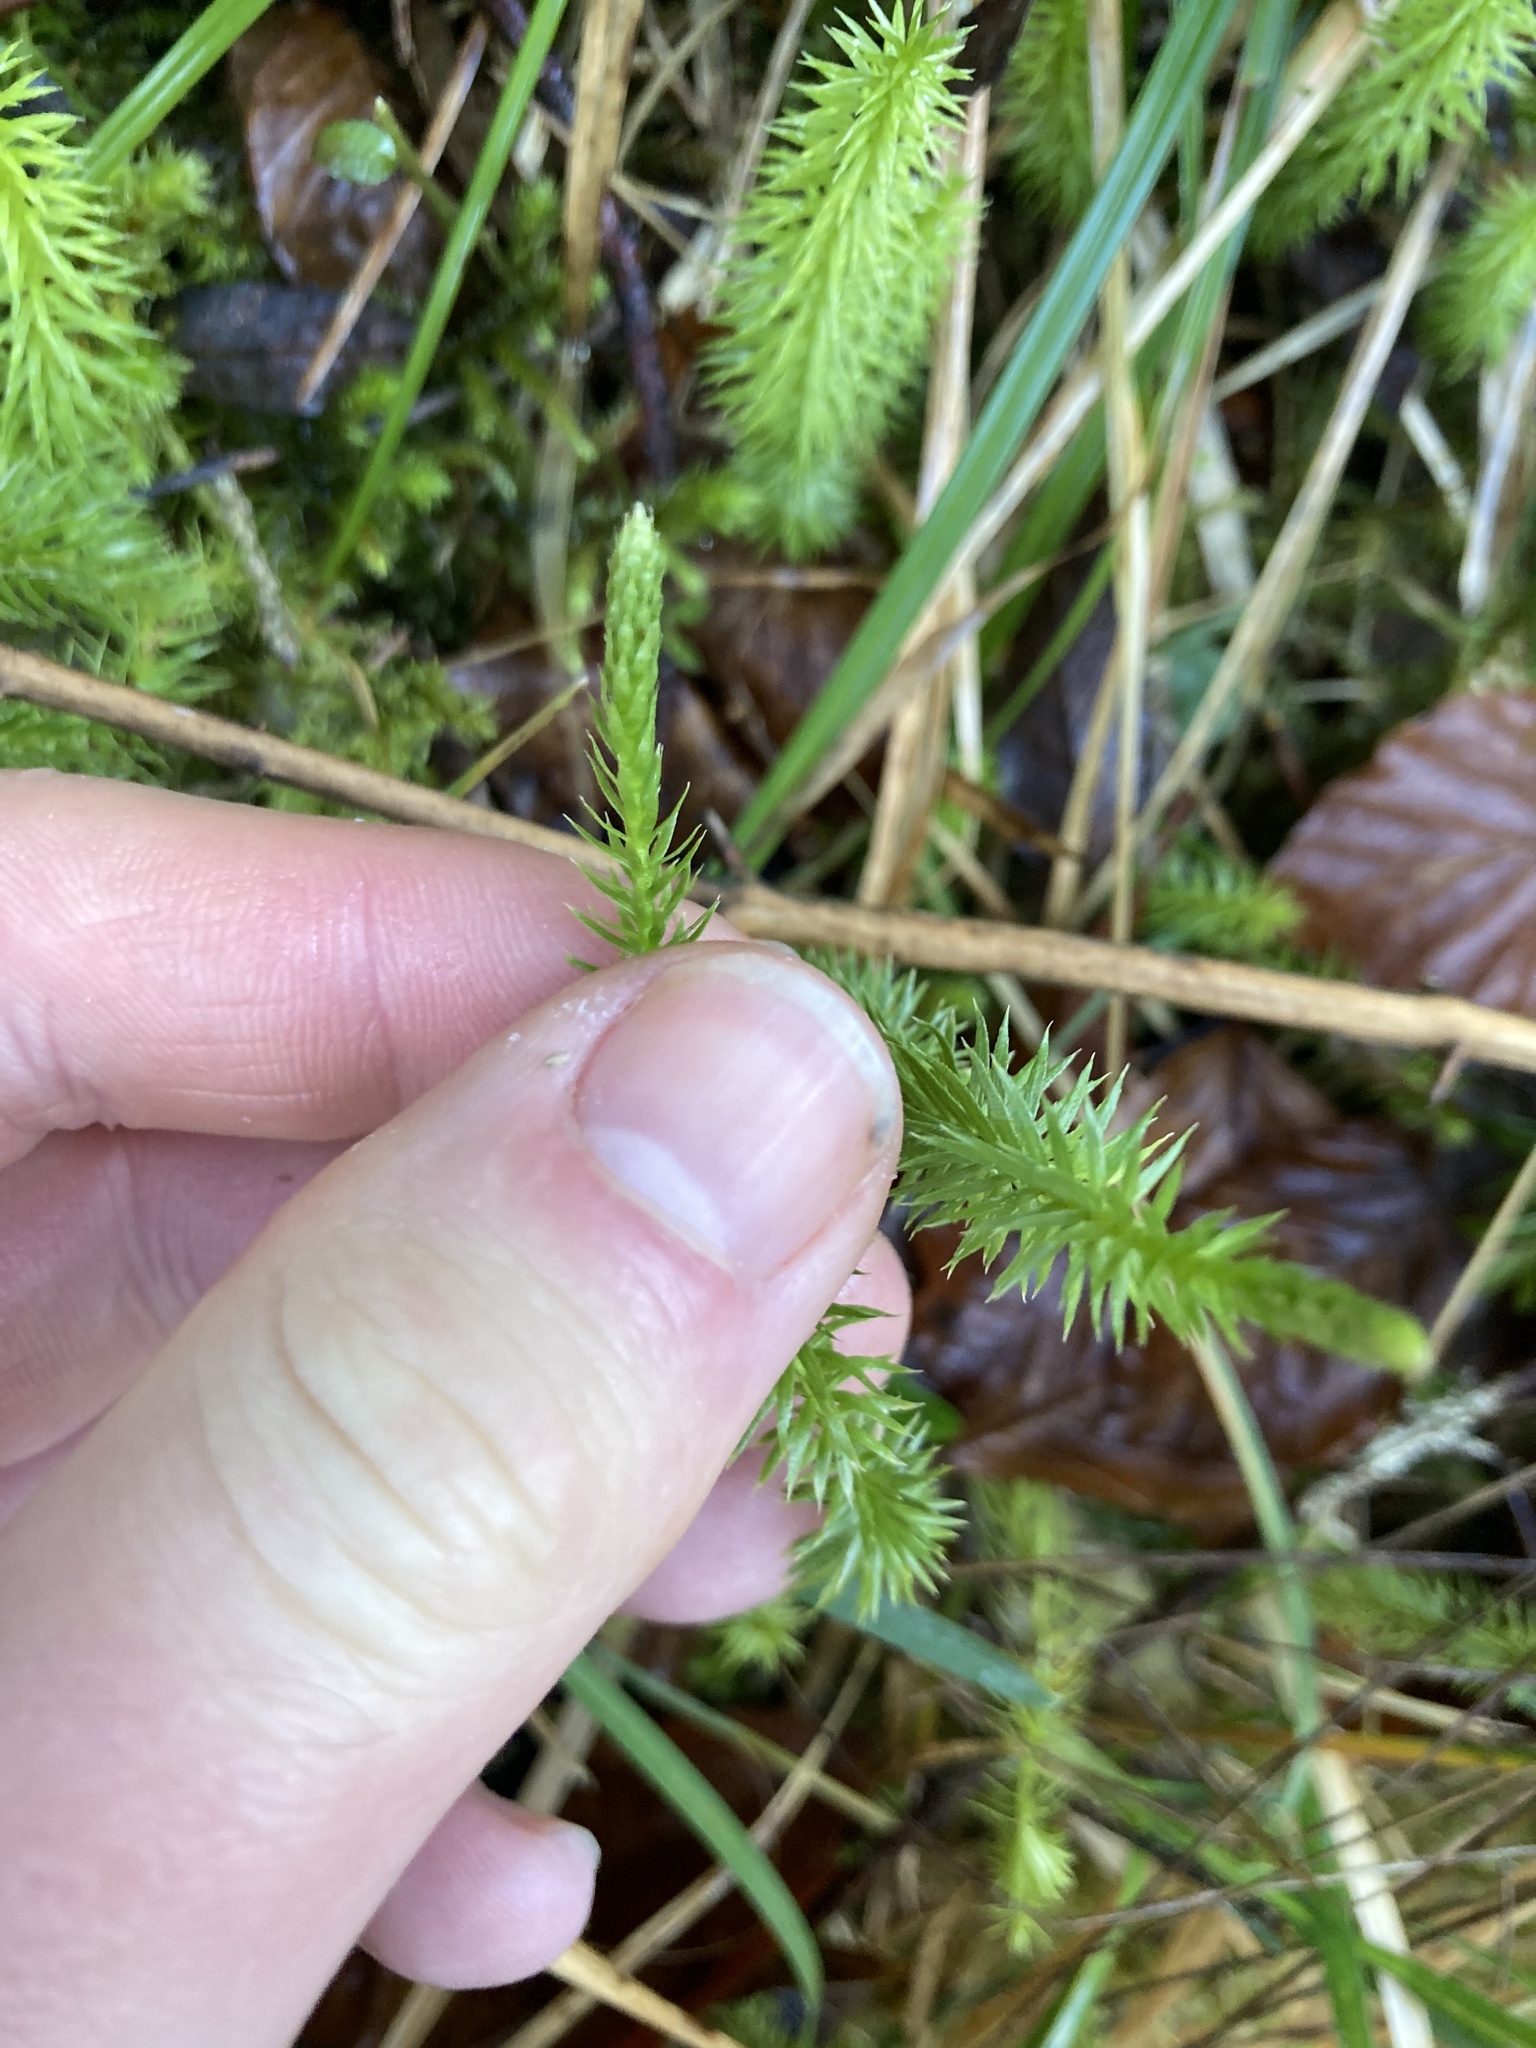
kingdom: Plantae
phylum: Tracheophyta
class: Lycopodiopsida
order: Lycopodiales
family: Lycopodiaceae
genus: Spinulum
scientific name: Spinulum annotinum
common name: Interrupted club-moss
